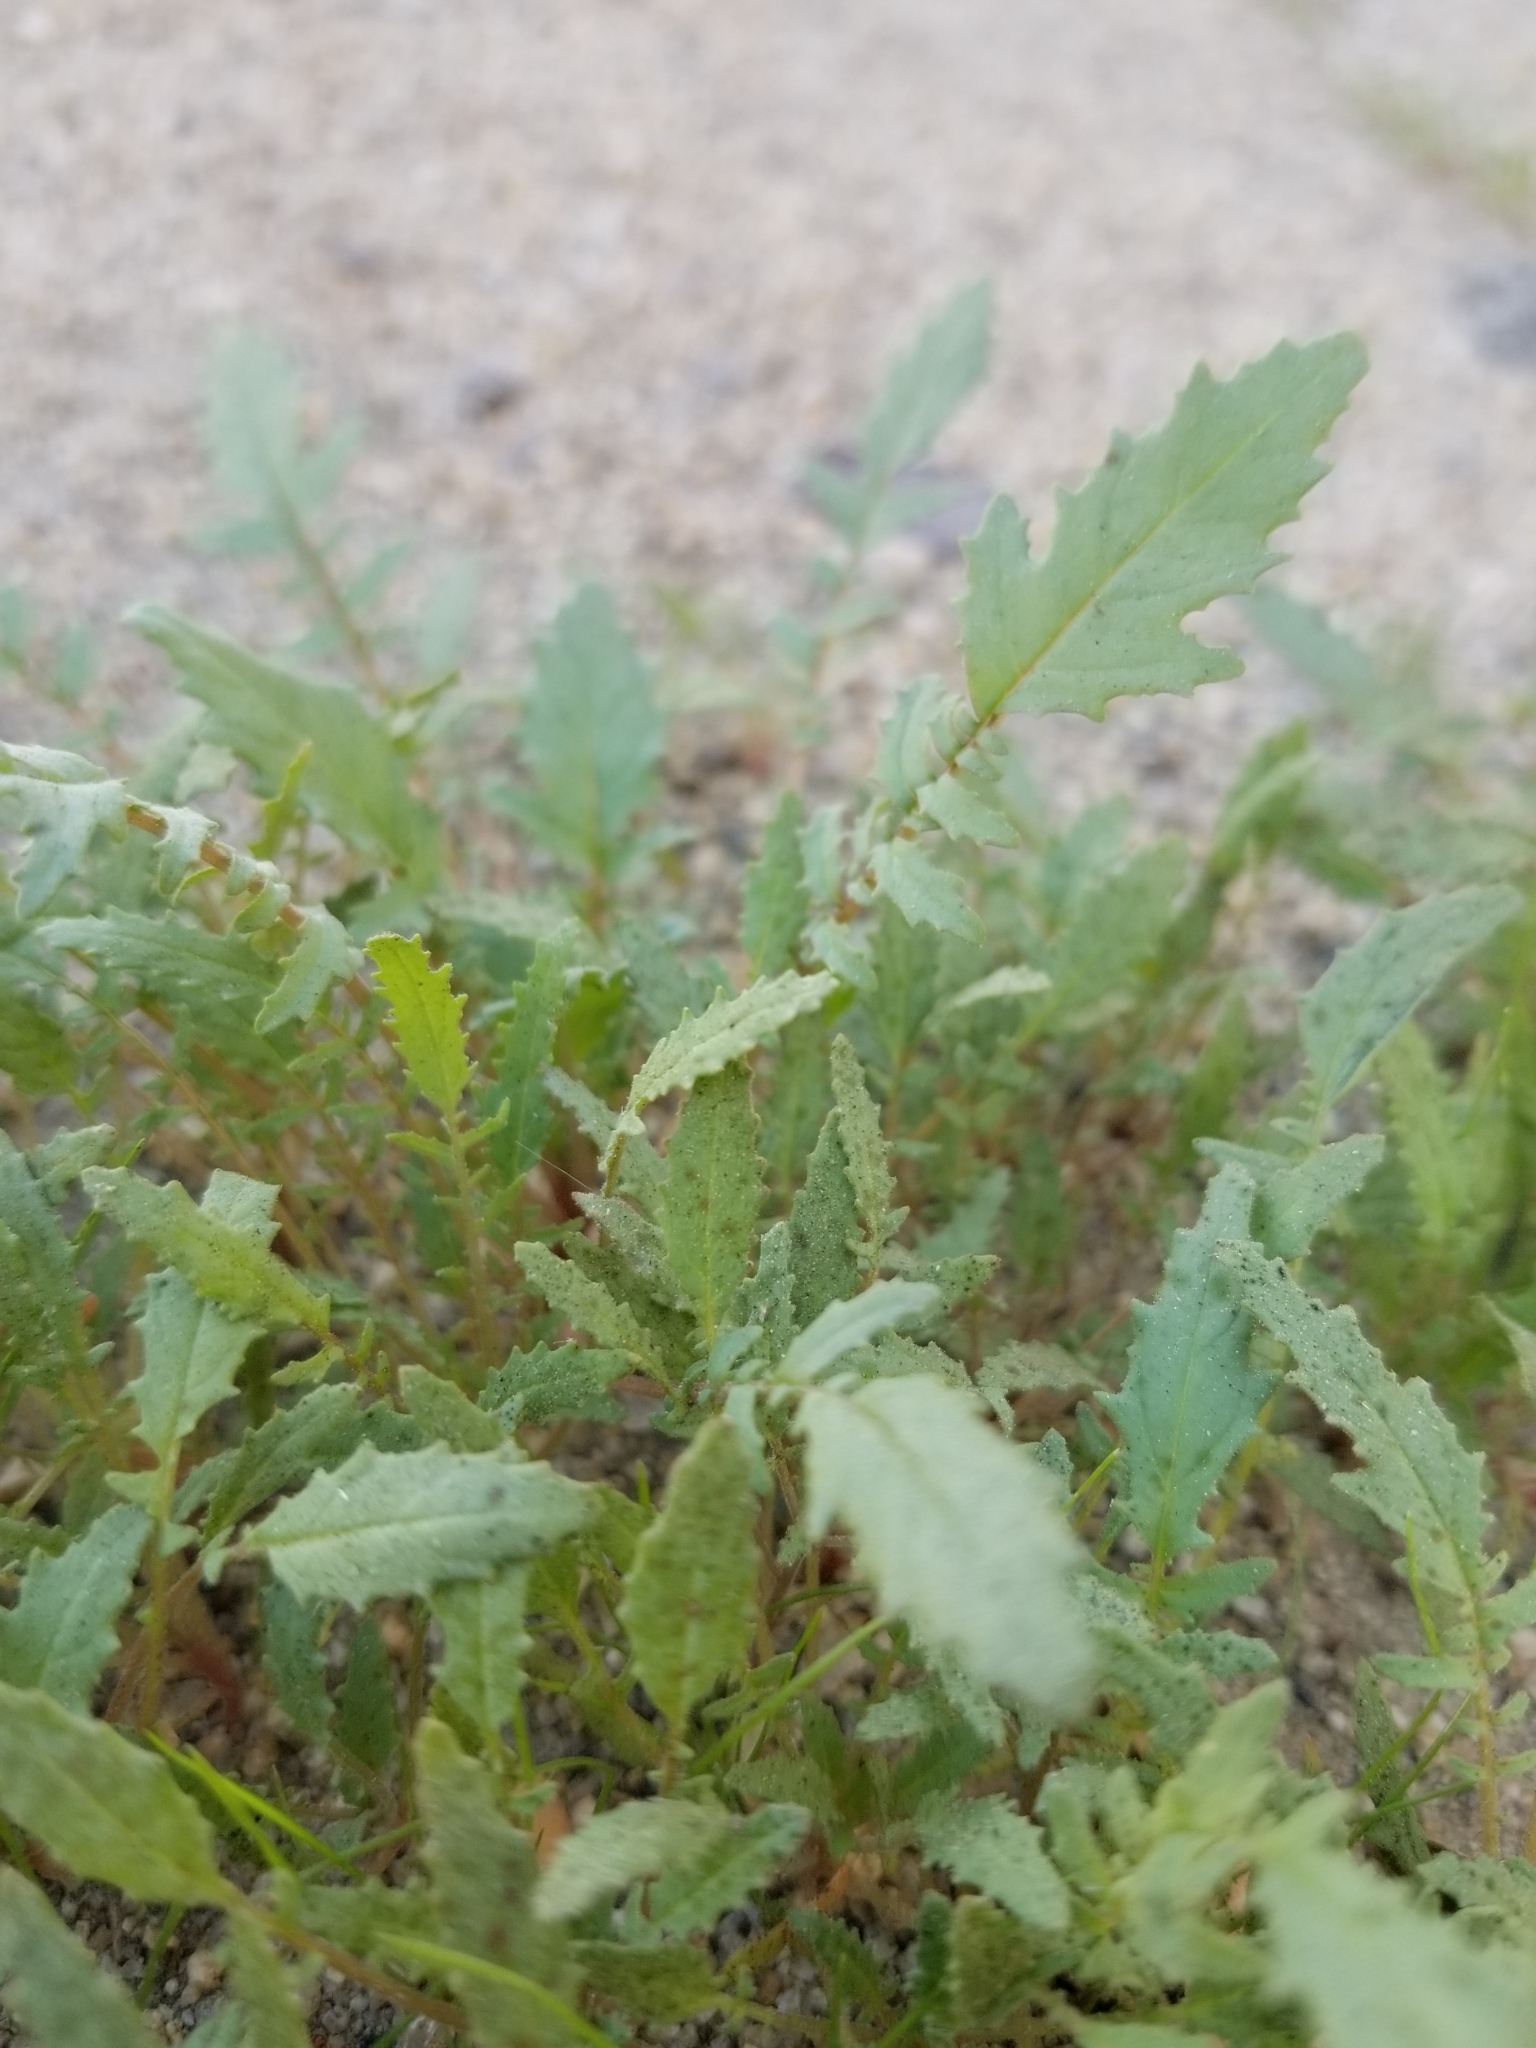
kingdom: Plantae
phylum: Tracheophyta
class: Magnoliopsida
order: Myrtales
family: Onagraceae
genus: Chylismia
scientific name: Chylismia claviformis
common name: Browneyes
